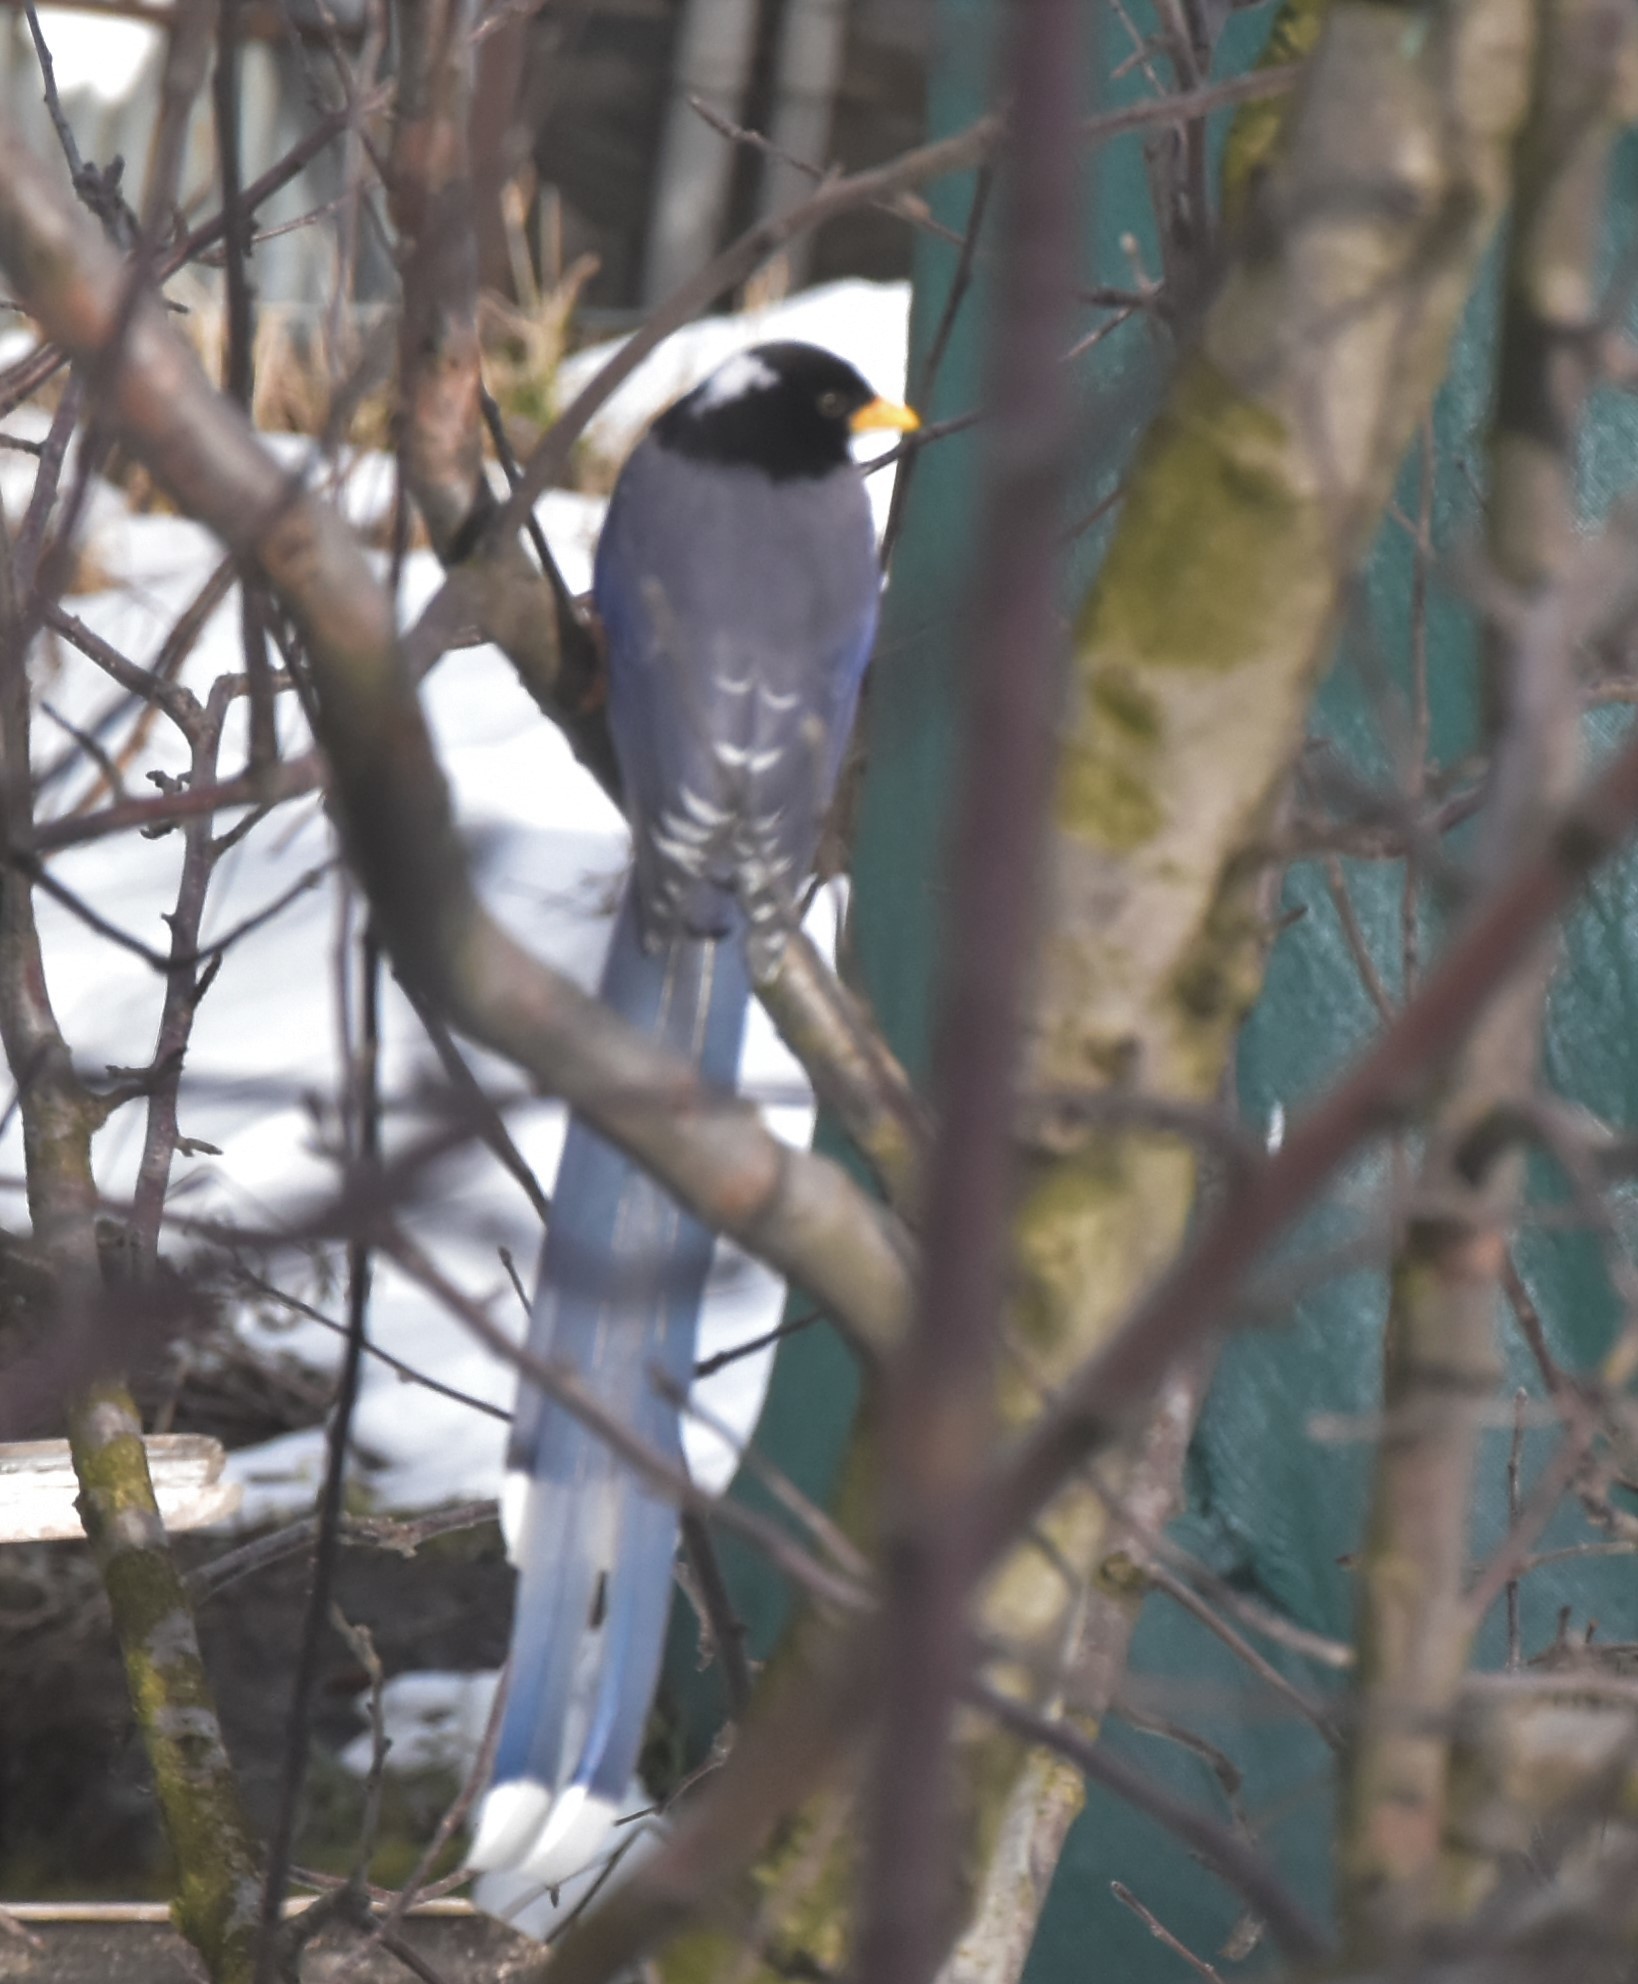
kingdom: Animalia
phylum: Chordata
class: Aves
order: Passeriformes
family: Corvidae
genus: Urocissa
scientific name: Urocissa flavirostris
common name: Yellow-billed blue magpie
